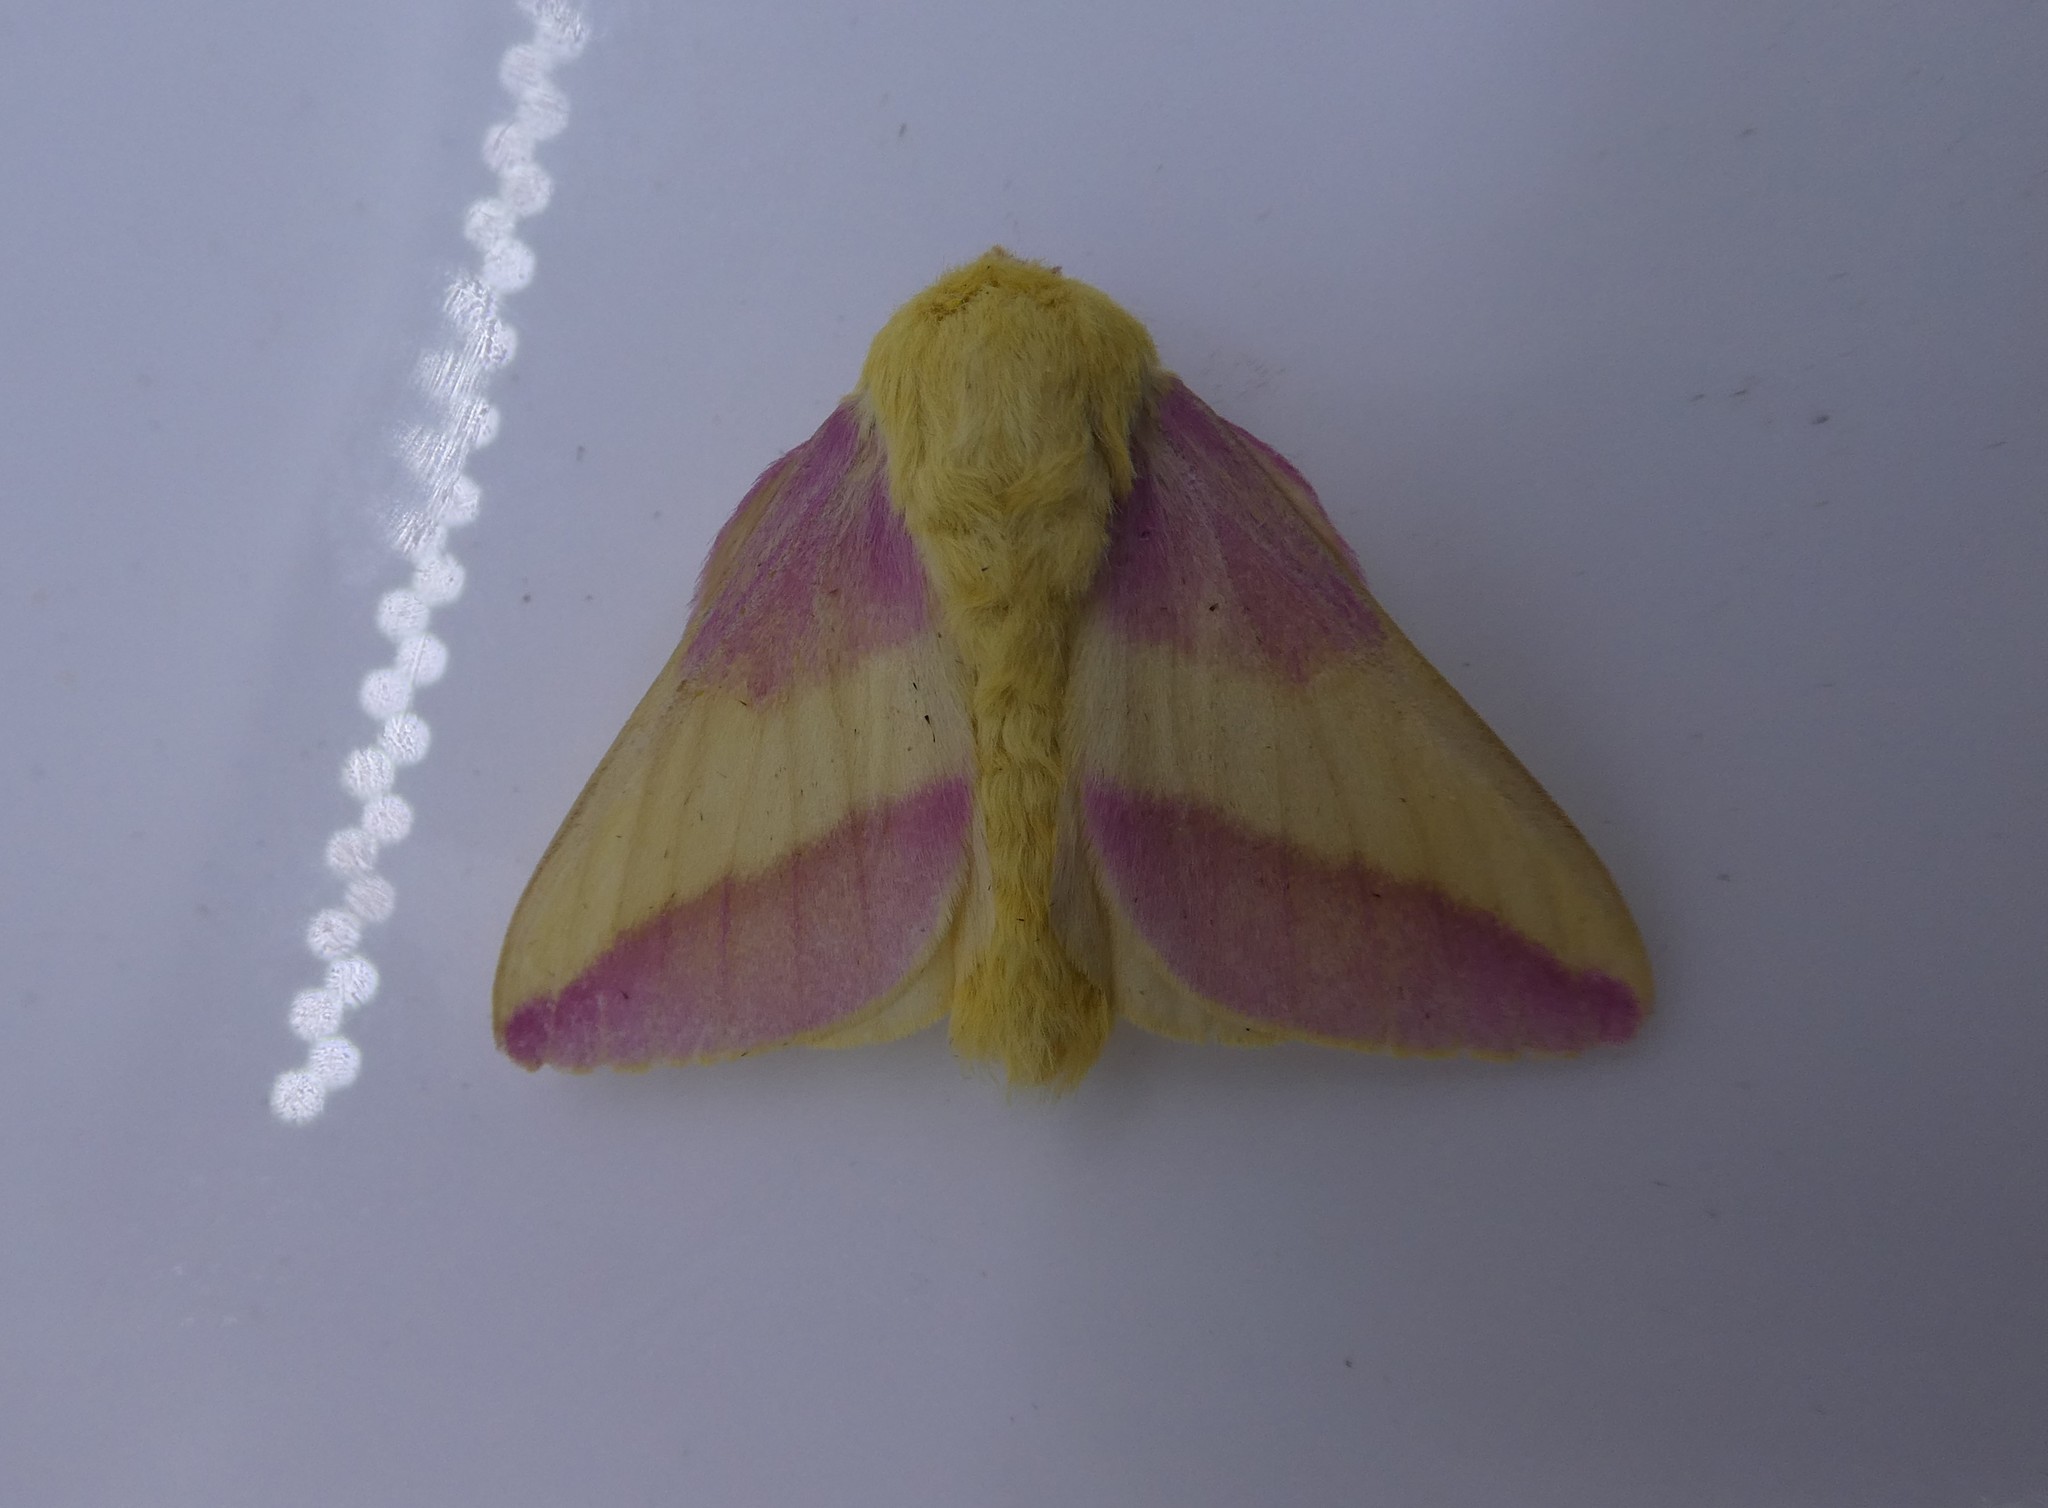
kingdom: Animalia
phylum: Arthropoda
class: Insecta
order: Lepidoptera
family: Saturniidae
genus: Dryocampa
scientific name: Dryocampa rubicunda
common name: Rosy maple moth
